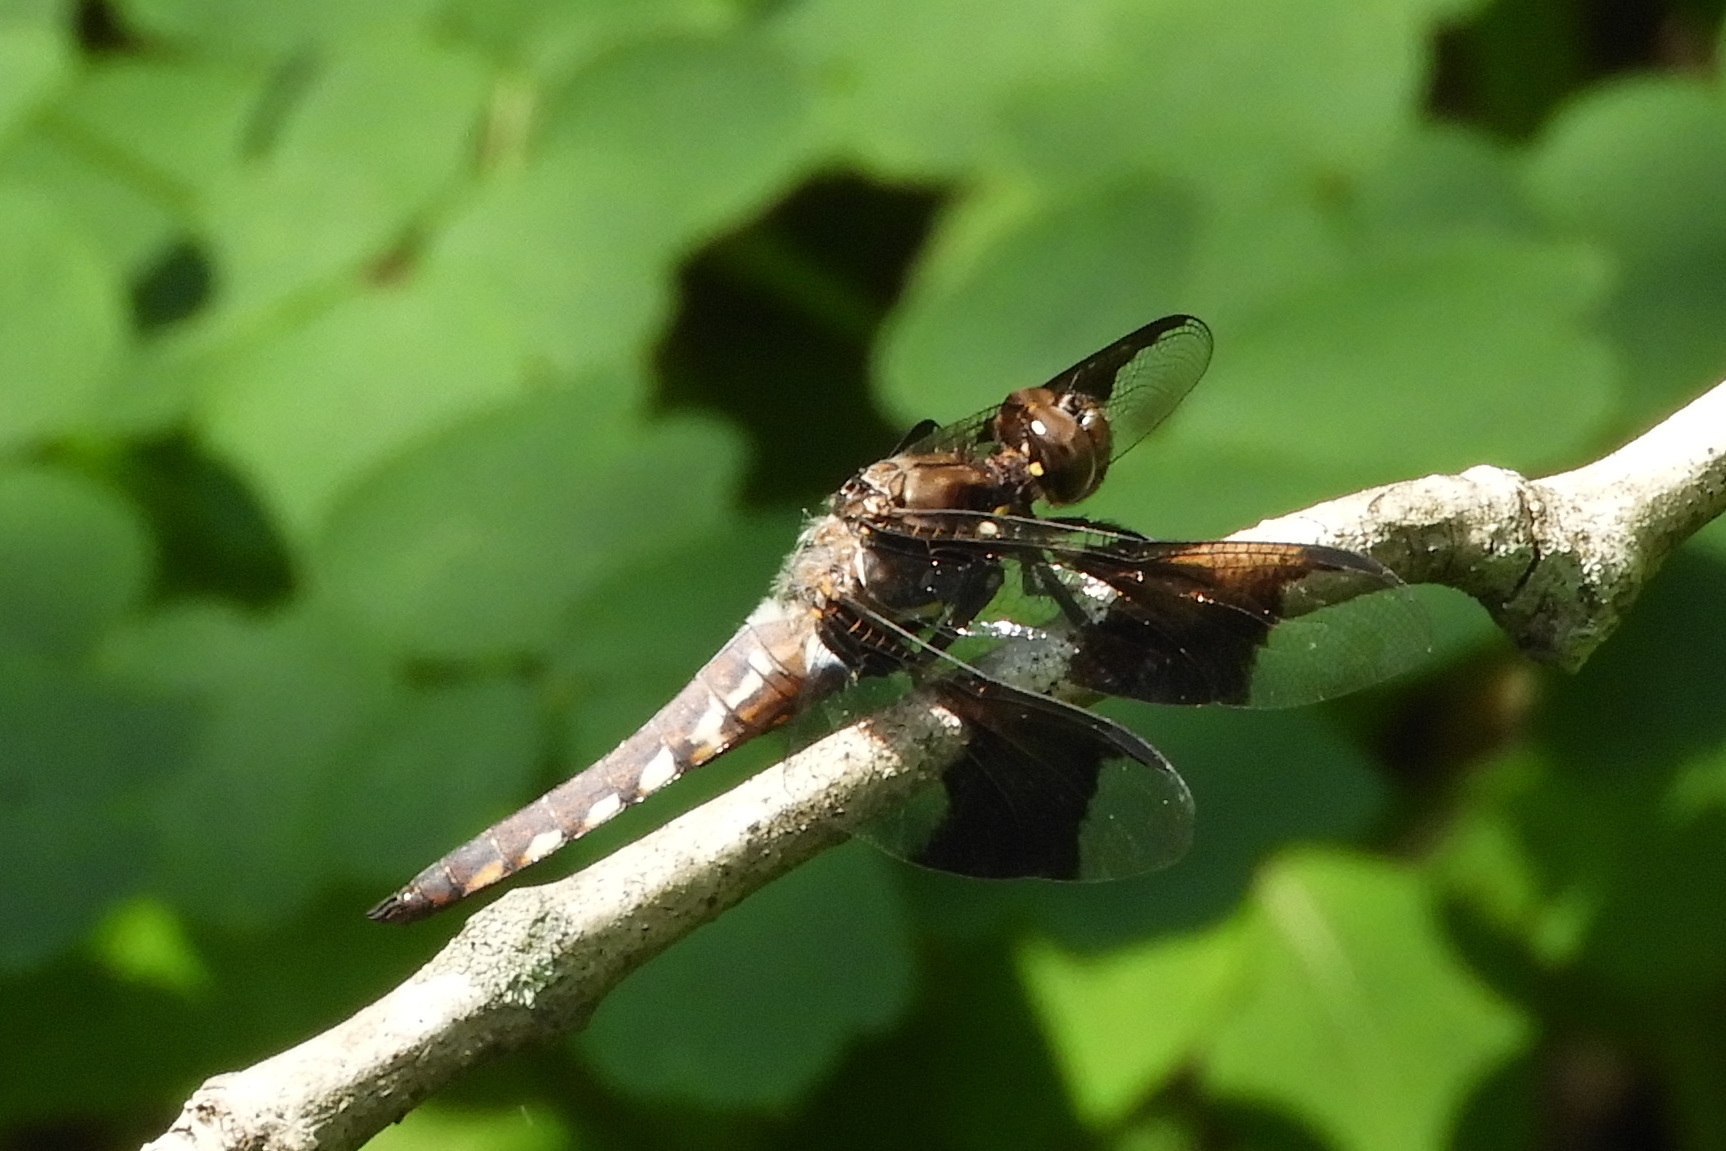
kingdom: Animalia
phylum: Arthropoda
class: Insecta
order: Odonata
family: Libellulidae
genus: Plathemis
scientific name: Plathemis lydia
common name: Common whitetail
